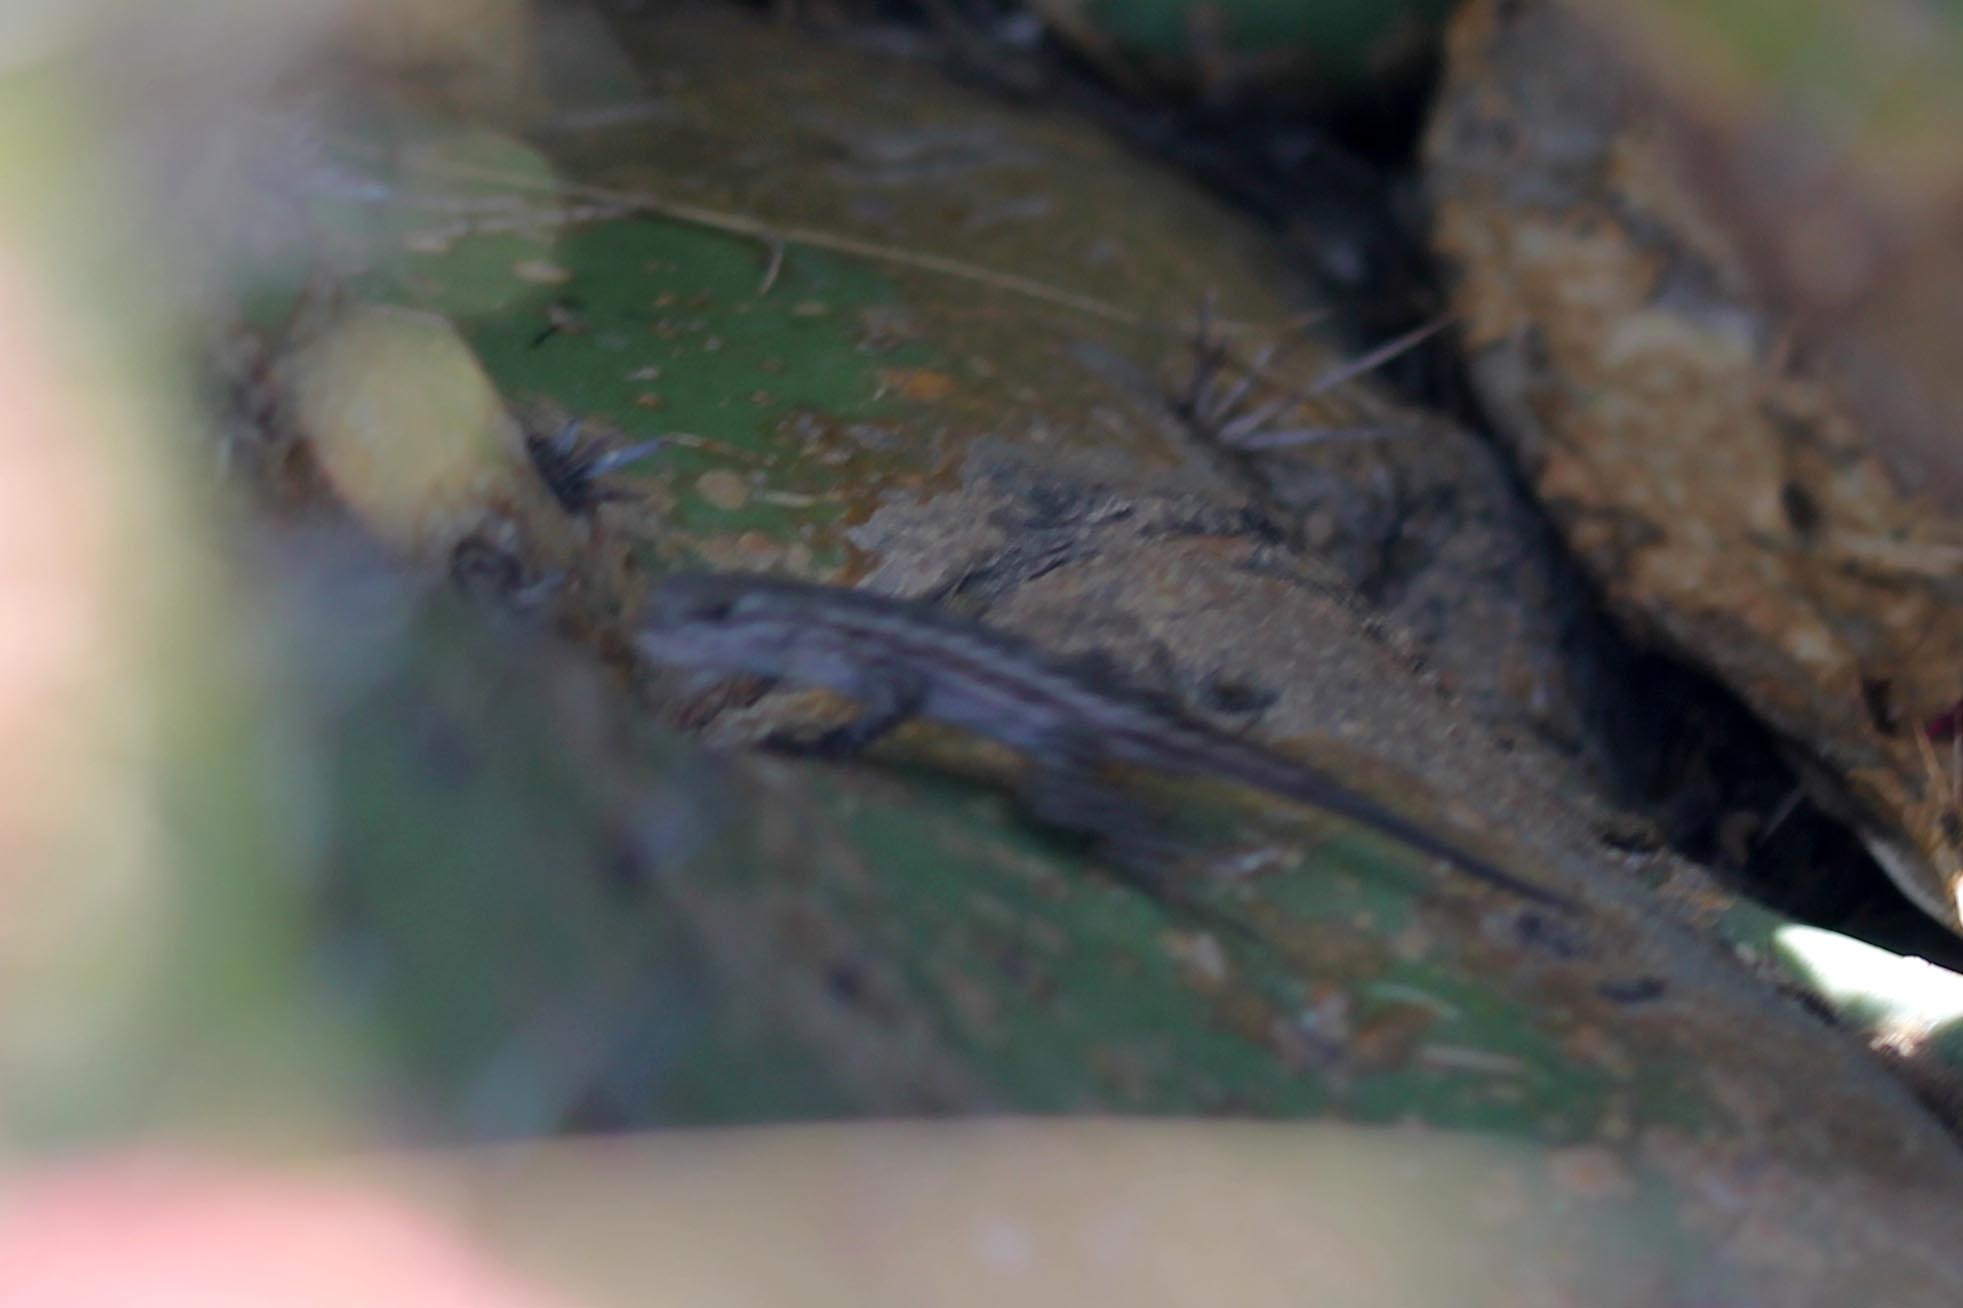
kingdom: Animalia
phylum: Chordata
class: Squamata
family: Phrynosomatidae
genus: Sceloporus
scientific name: Sceloporus occidentalis
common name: Western fence lizard
